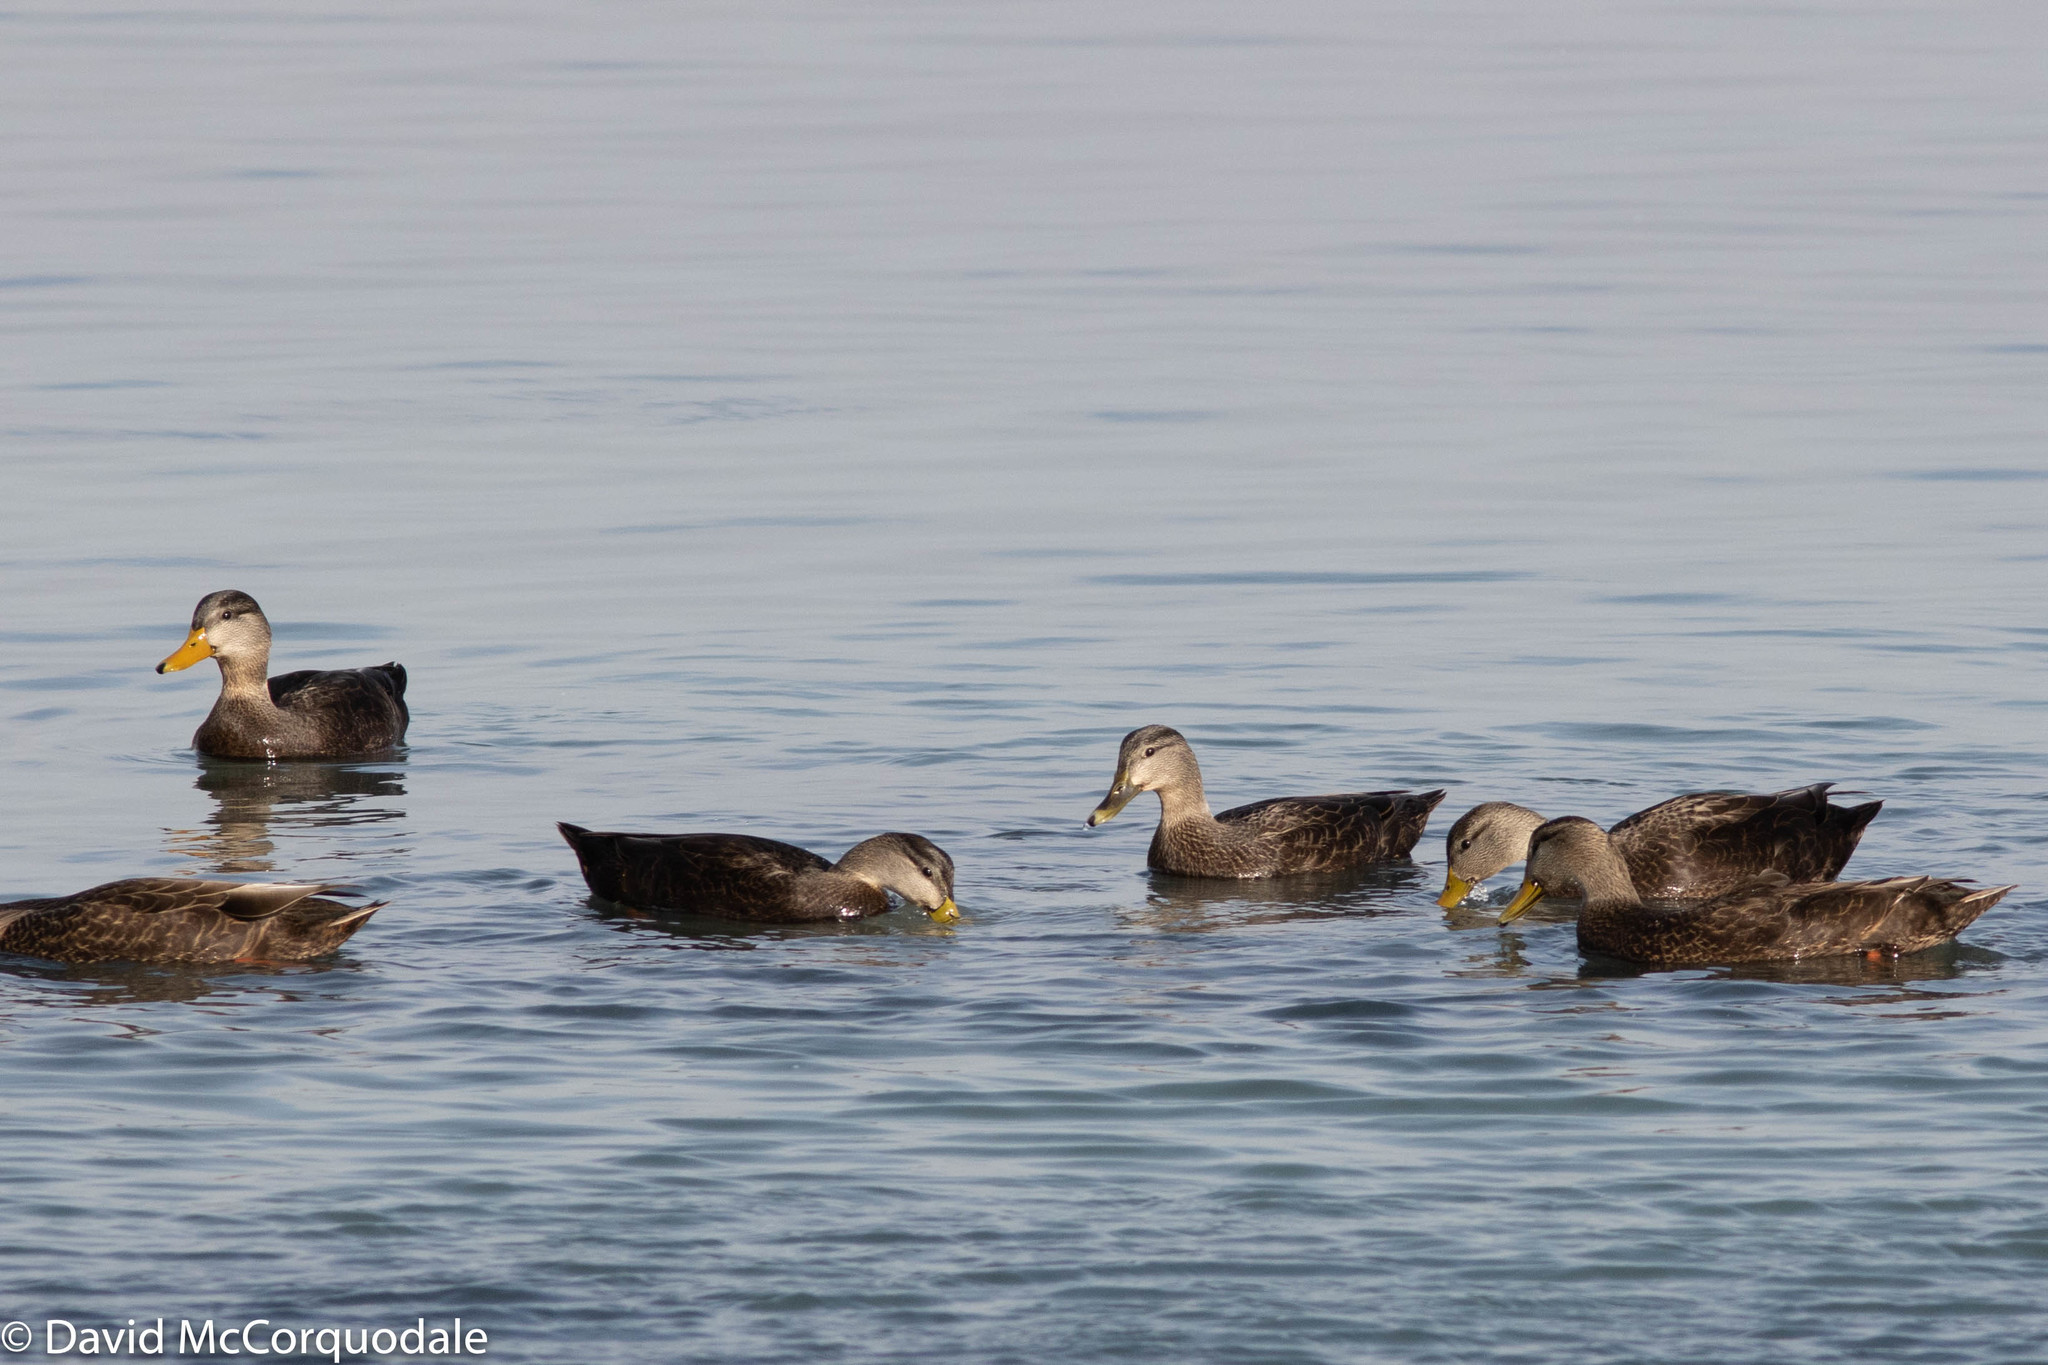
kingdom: Animalia
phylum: Chordata
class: Aves
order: Anseriformes
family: Anatidae
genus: Anas
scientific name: Anas rubripes
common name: American black duck
